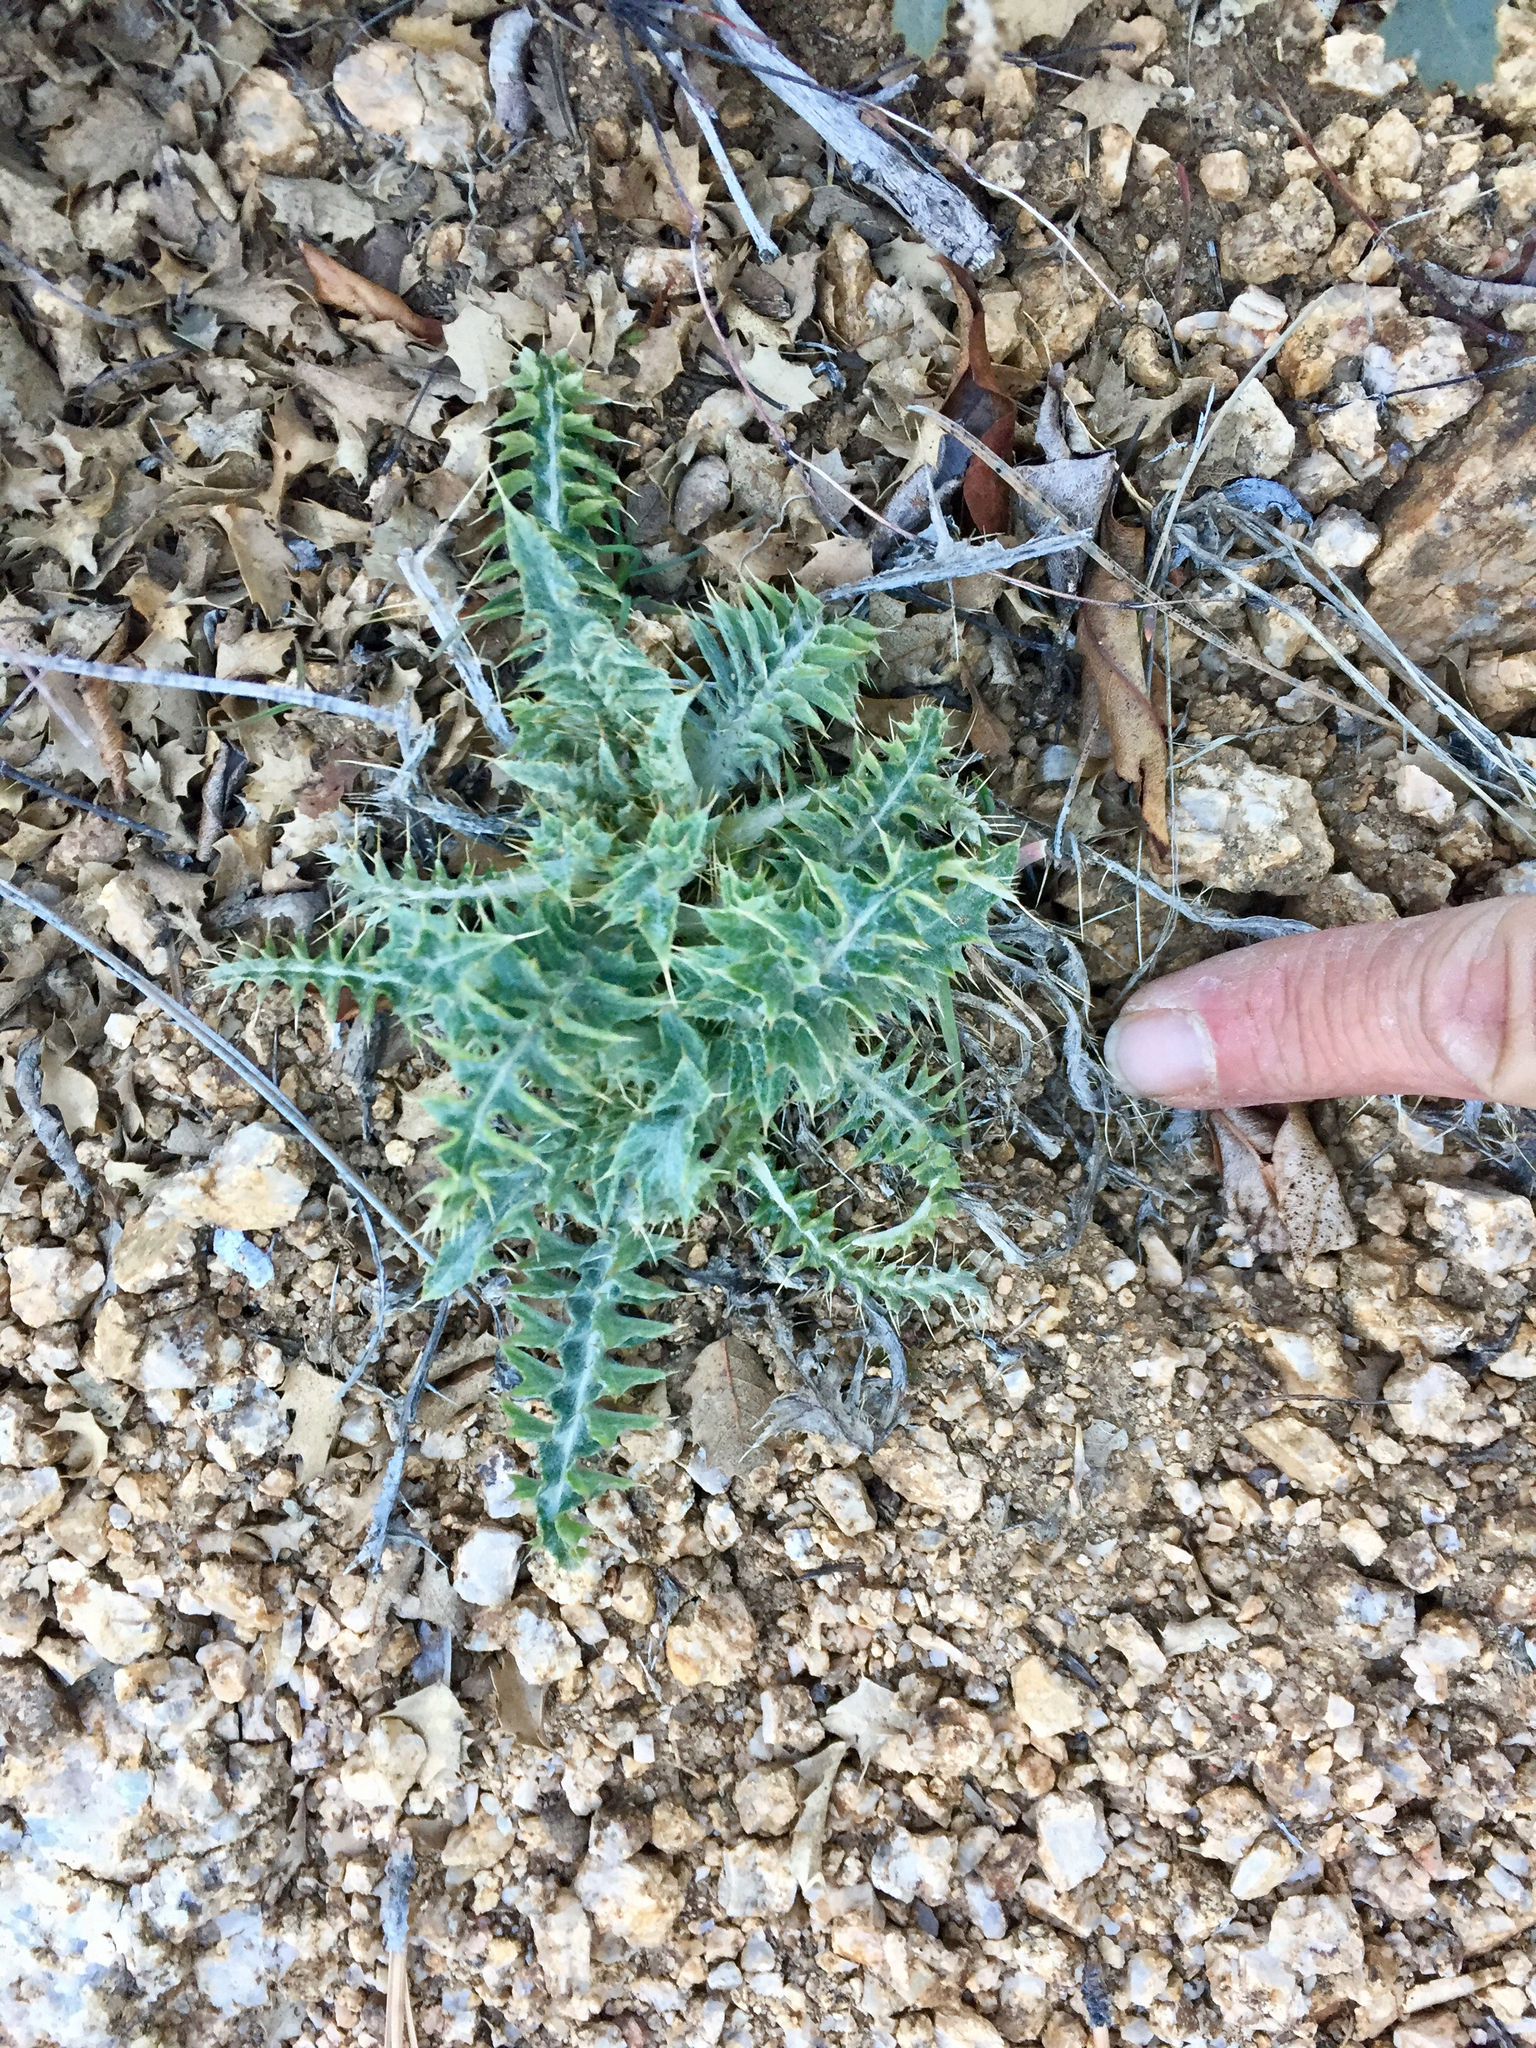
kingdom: Plantae
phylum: Tracheophyta
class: Magnoliopsida
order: Asterales
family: Asteraceae
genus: Cirsium
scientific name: Cirsium arizonicum
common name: Arizona thistle
